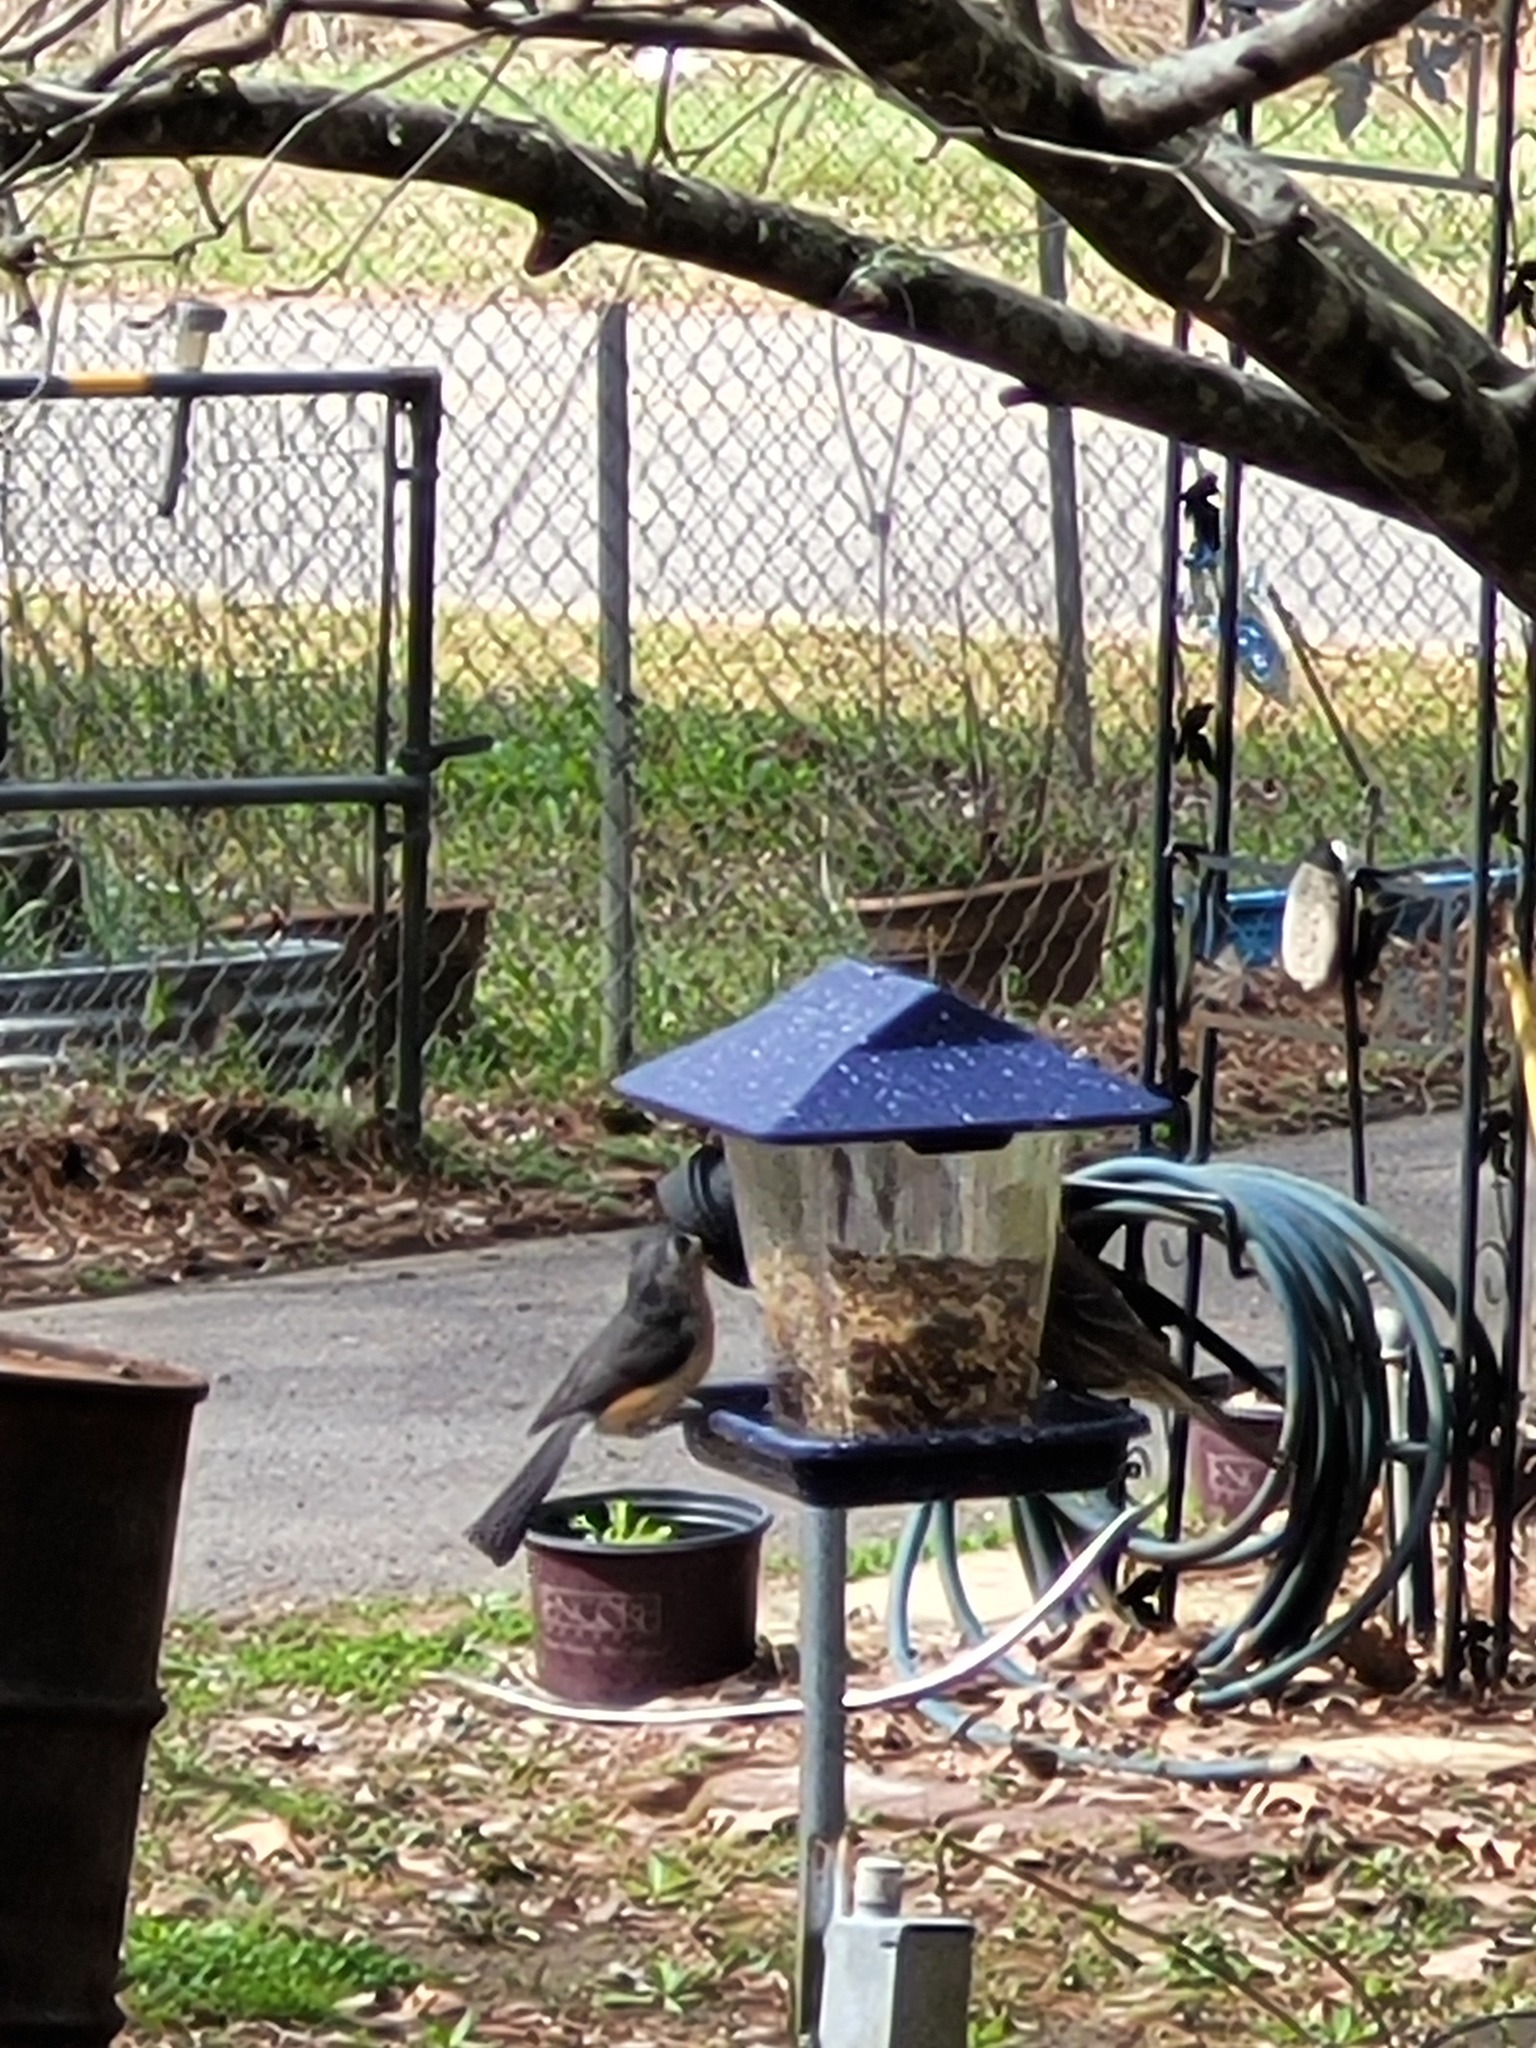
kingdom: Animalia
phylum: Chordata
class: Aves
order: Passeriformes
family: Paridae
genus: Baeolophus
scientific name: Baeolophus bicolor
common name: Tufted titmouse
